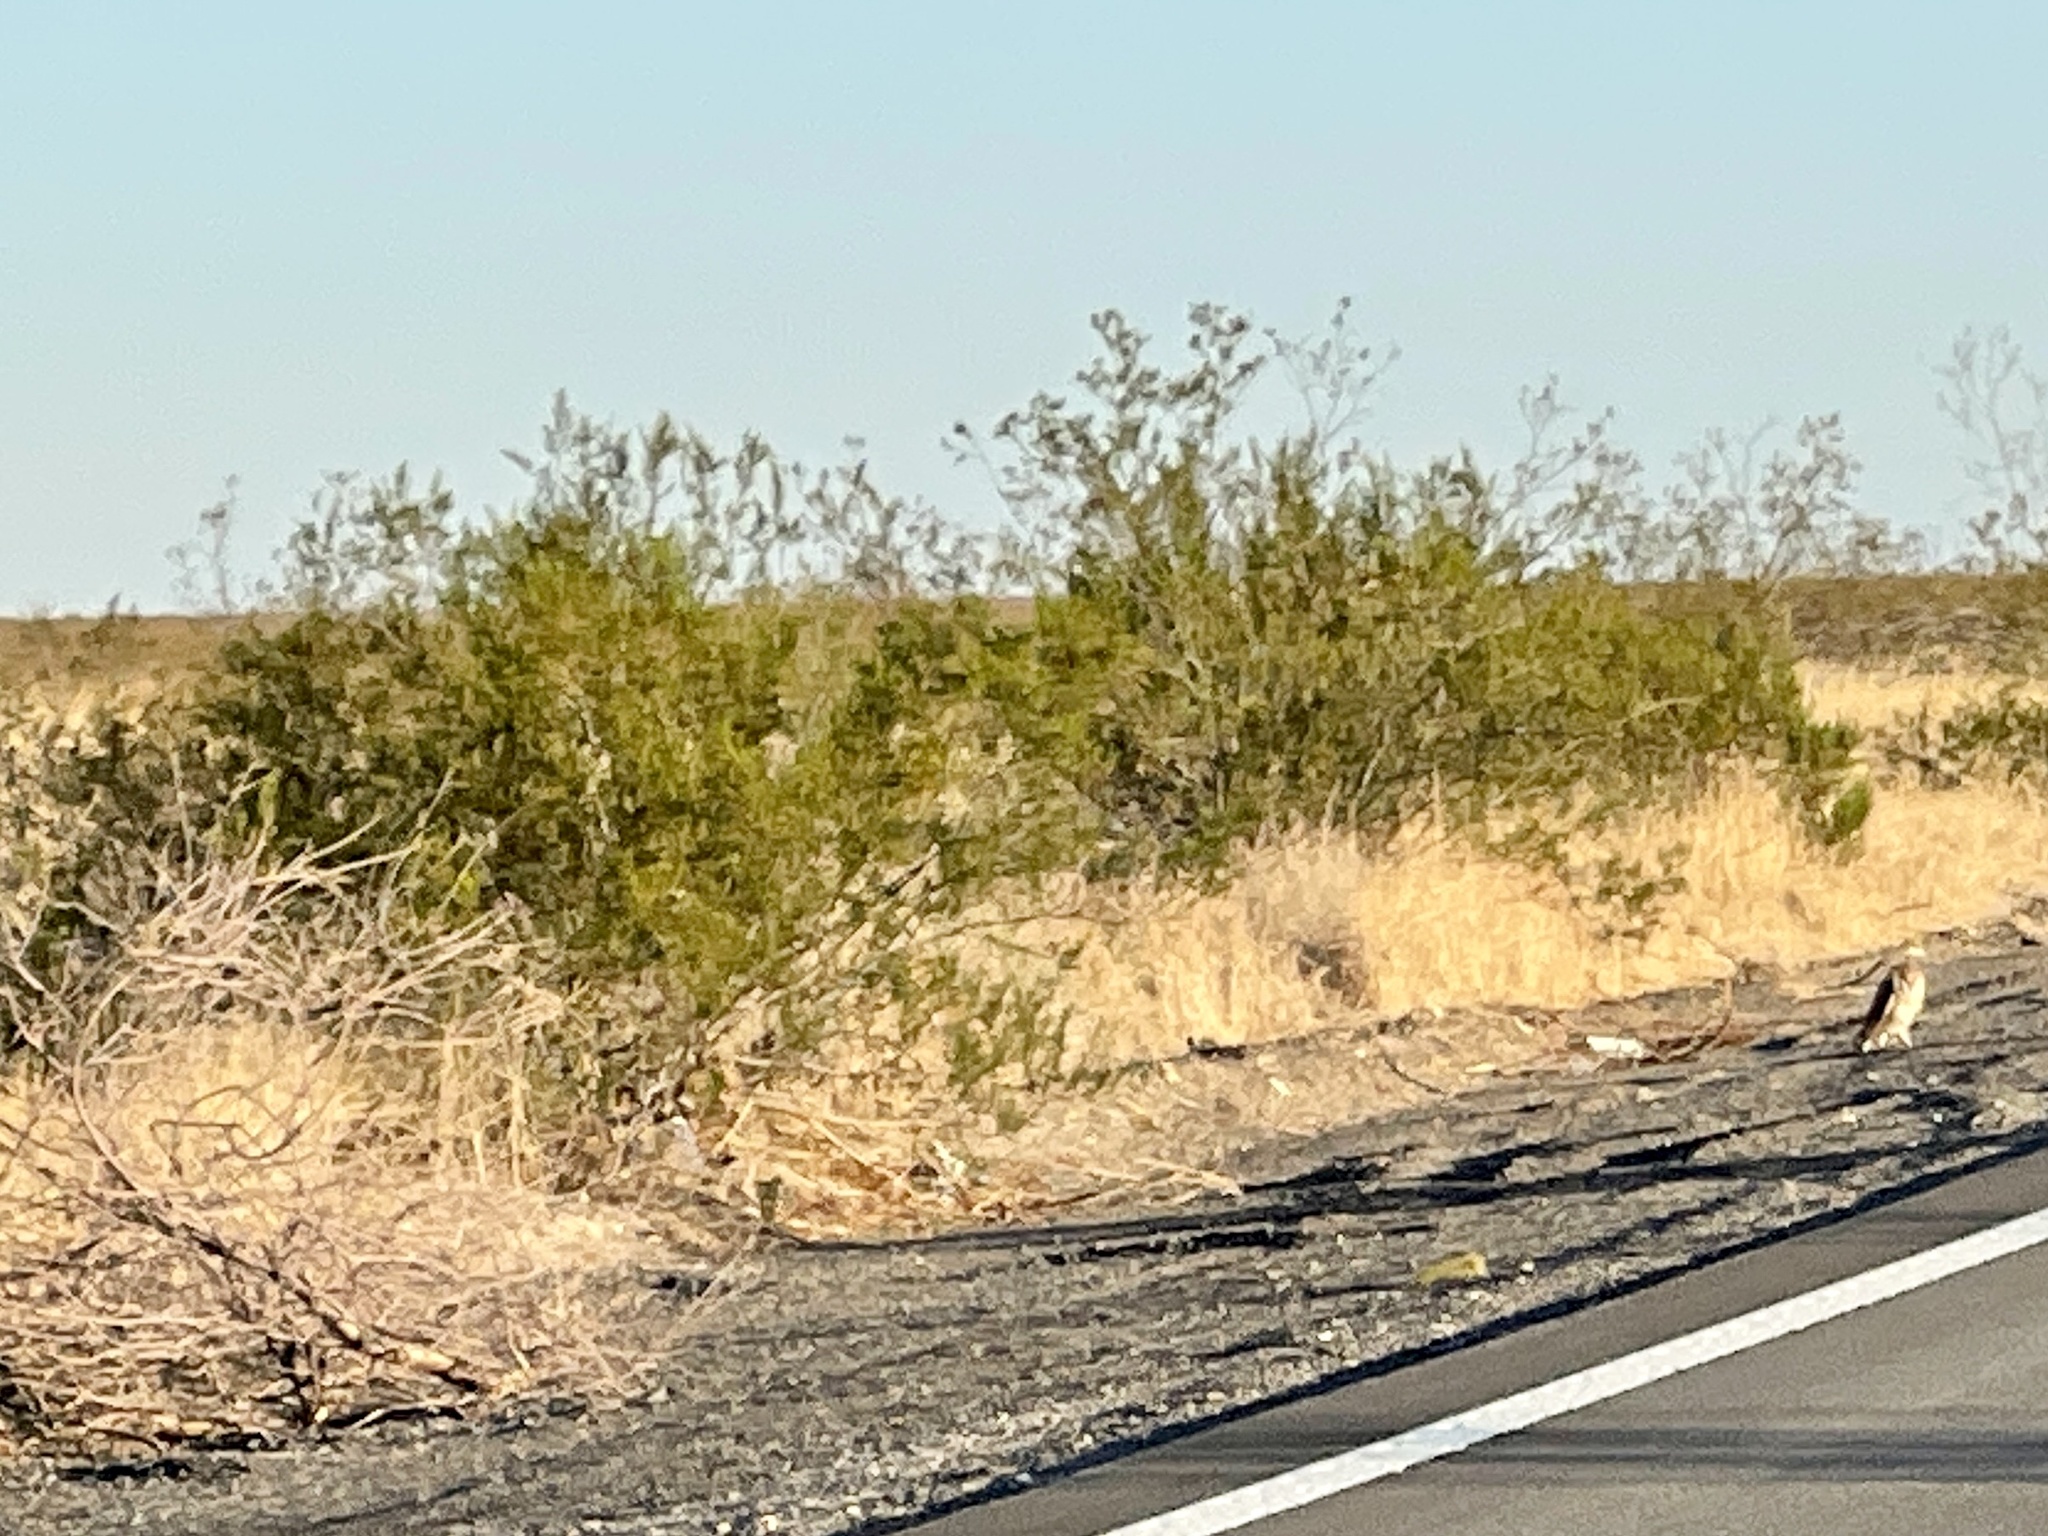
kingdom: Plantae
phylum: Tracheophyta
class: Magnoliopsida
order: Zygophyllales
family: Zygophyllaceae
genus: Larrea
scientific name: Larrea tridentata
